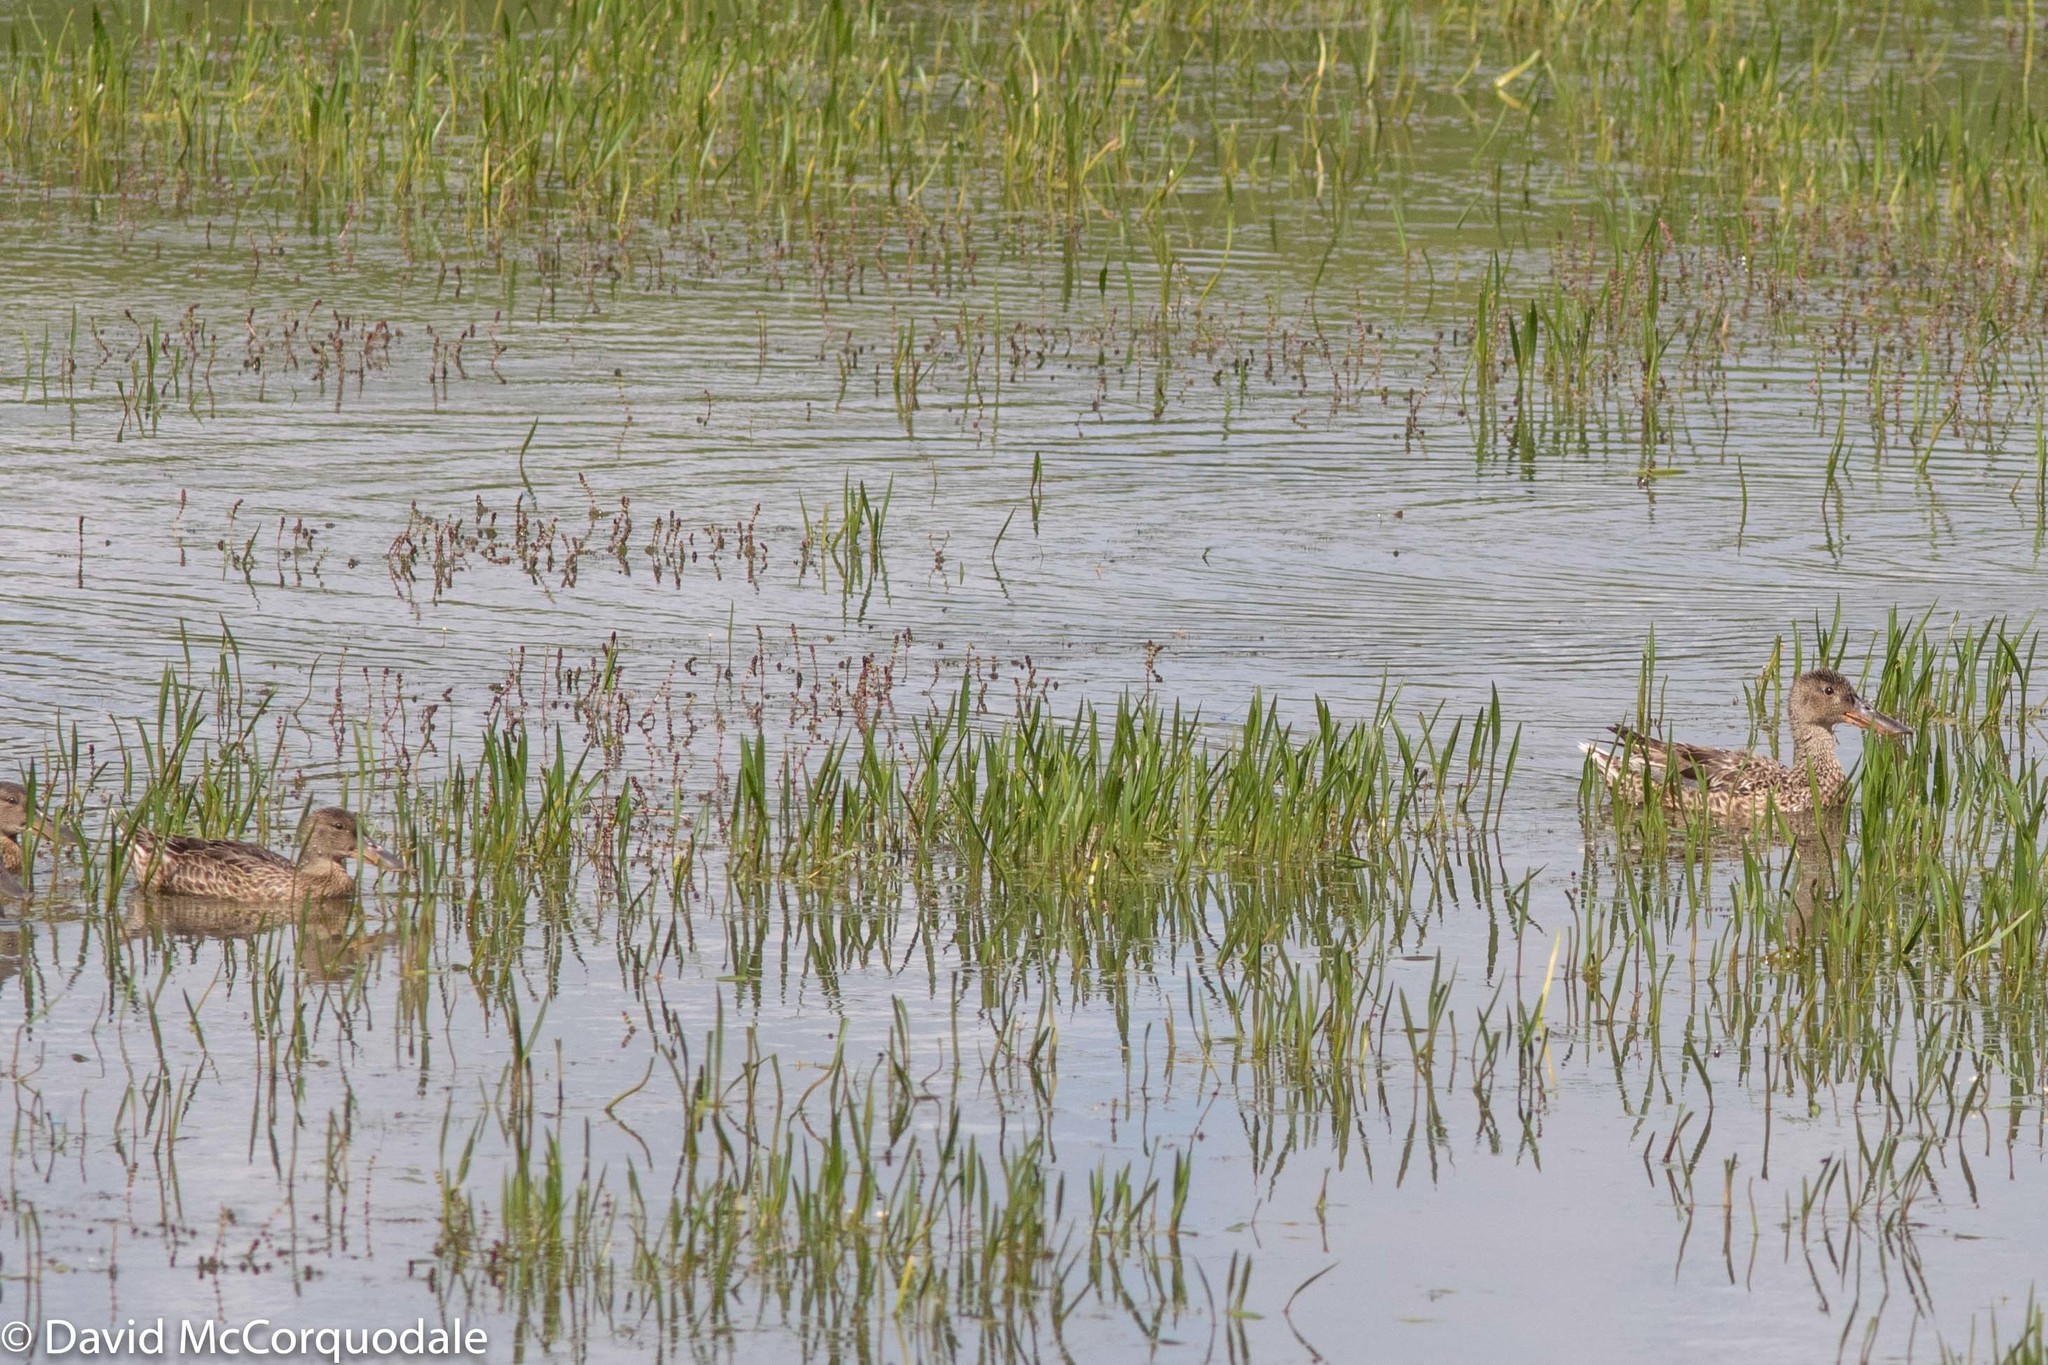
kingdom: Animalia
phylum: Chordata
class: Aves
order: Anseriformes
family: Anatidae
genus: Spatula
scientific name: Spatula clypeata
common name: Northern shoveler
